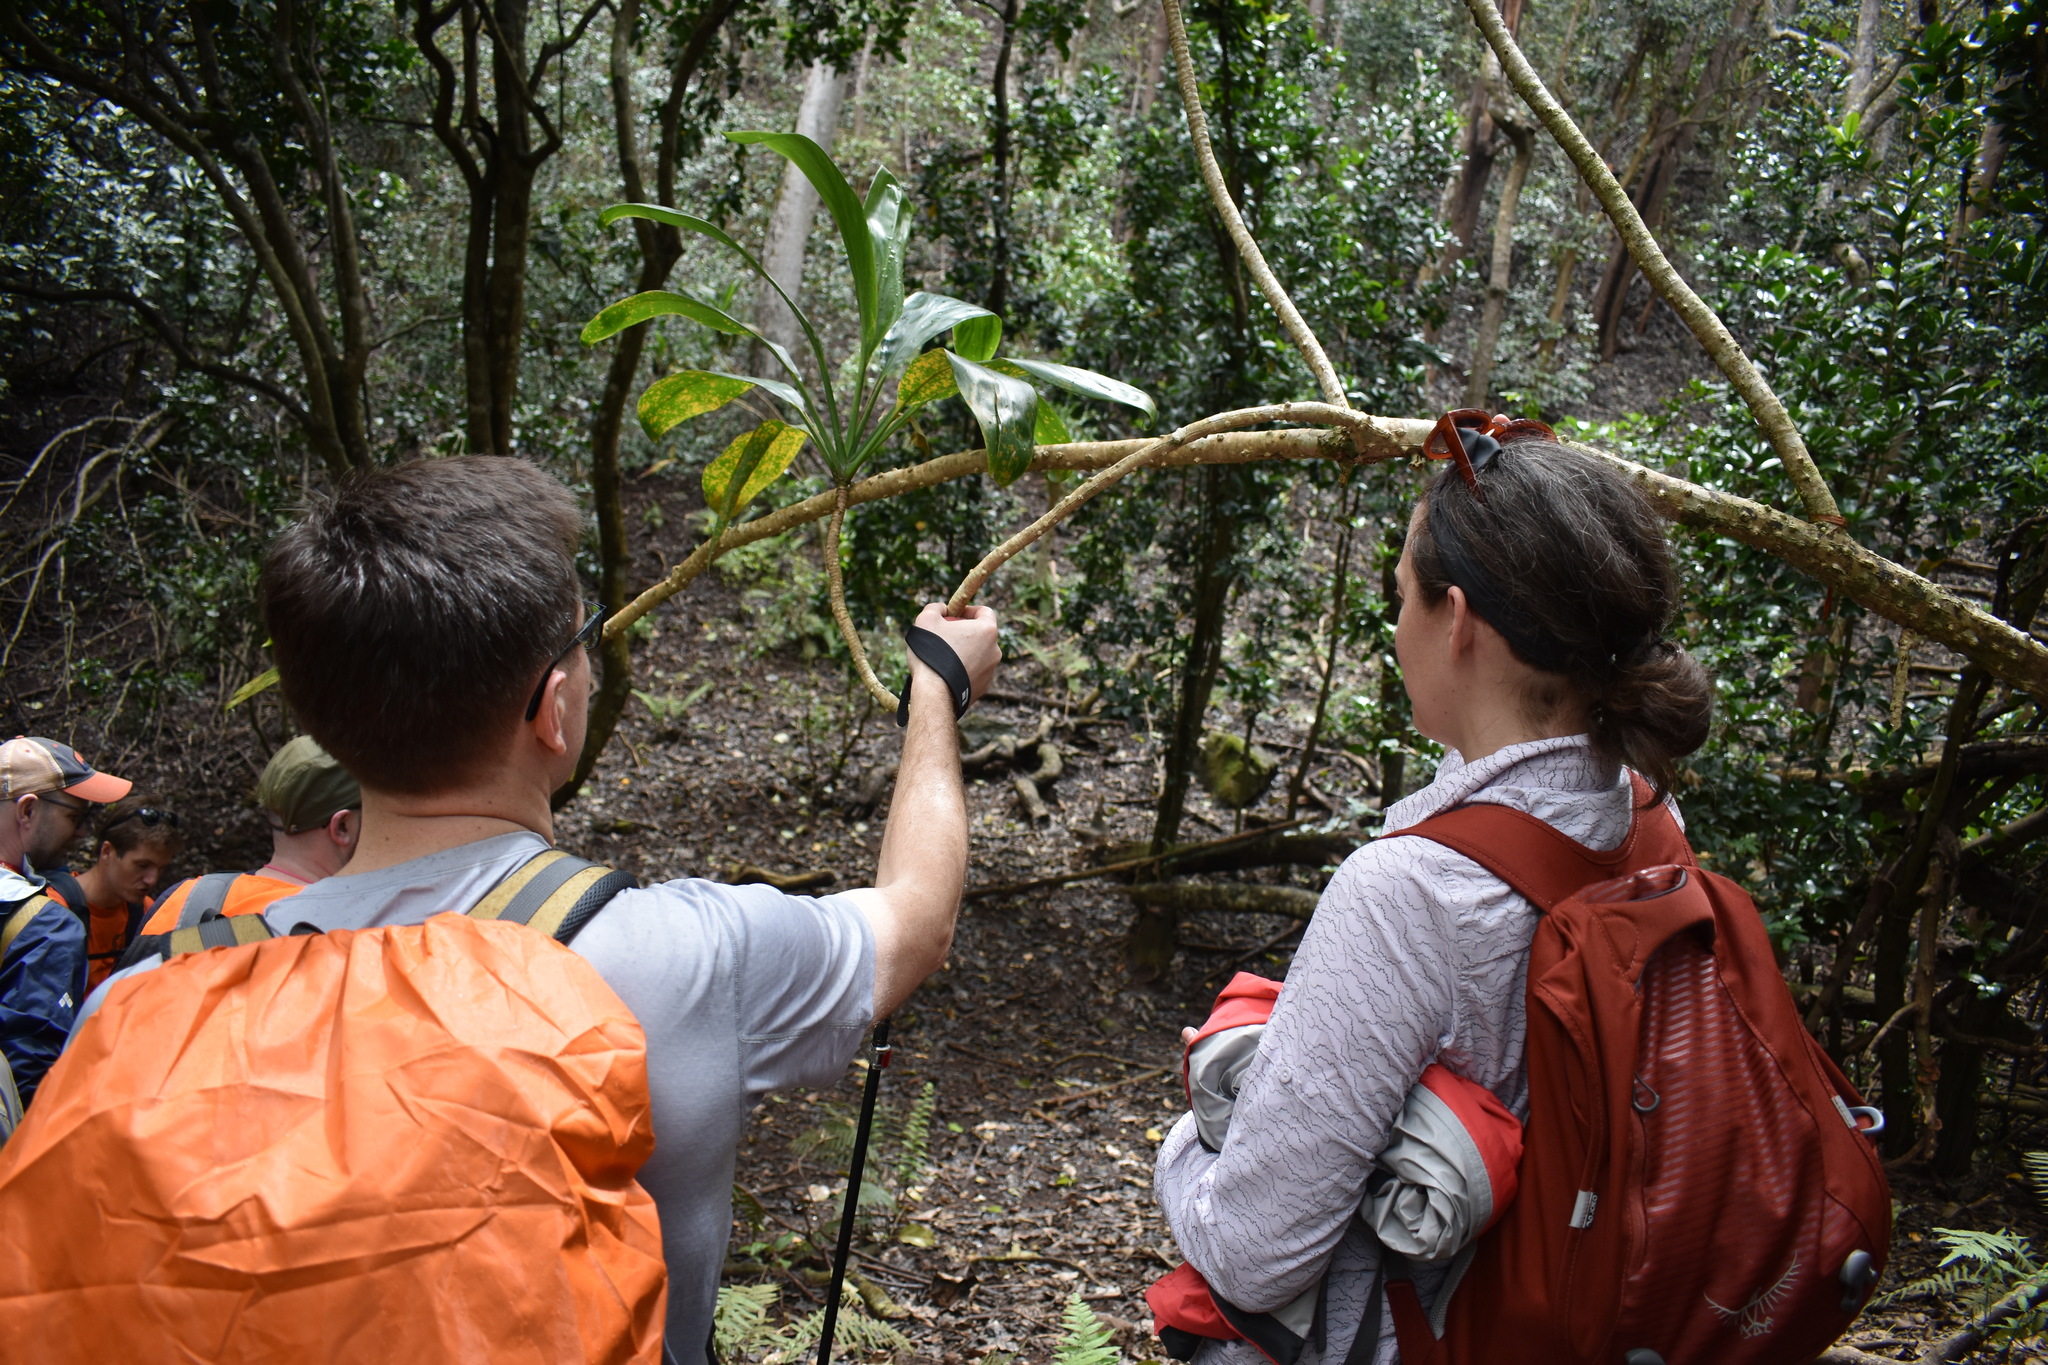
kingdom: Plantae
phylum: Tracheophyta
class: Liliopsida
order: Asparagales
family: Asparagaceae
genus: Cordyline
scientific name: Cordyline fruticosa
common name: Good-luck-plant
